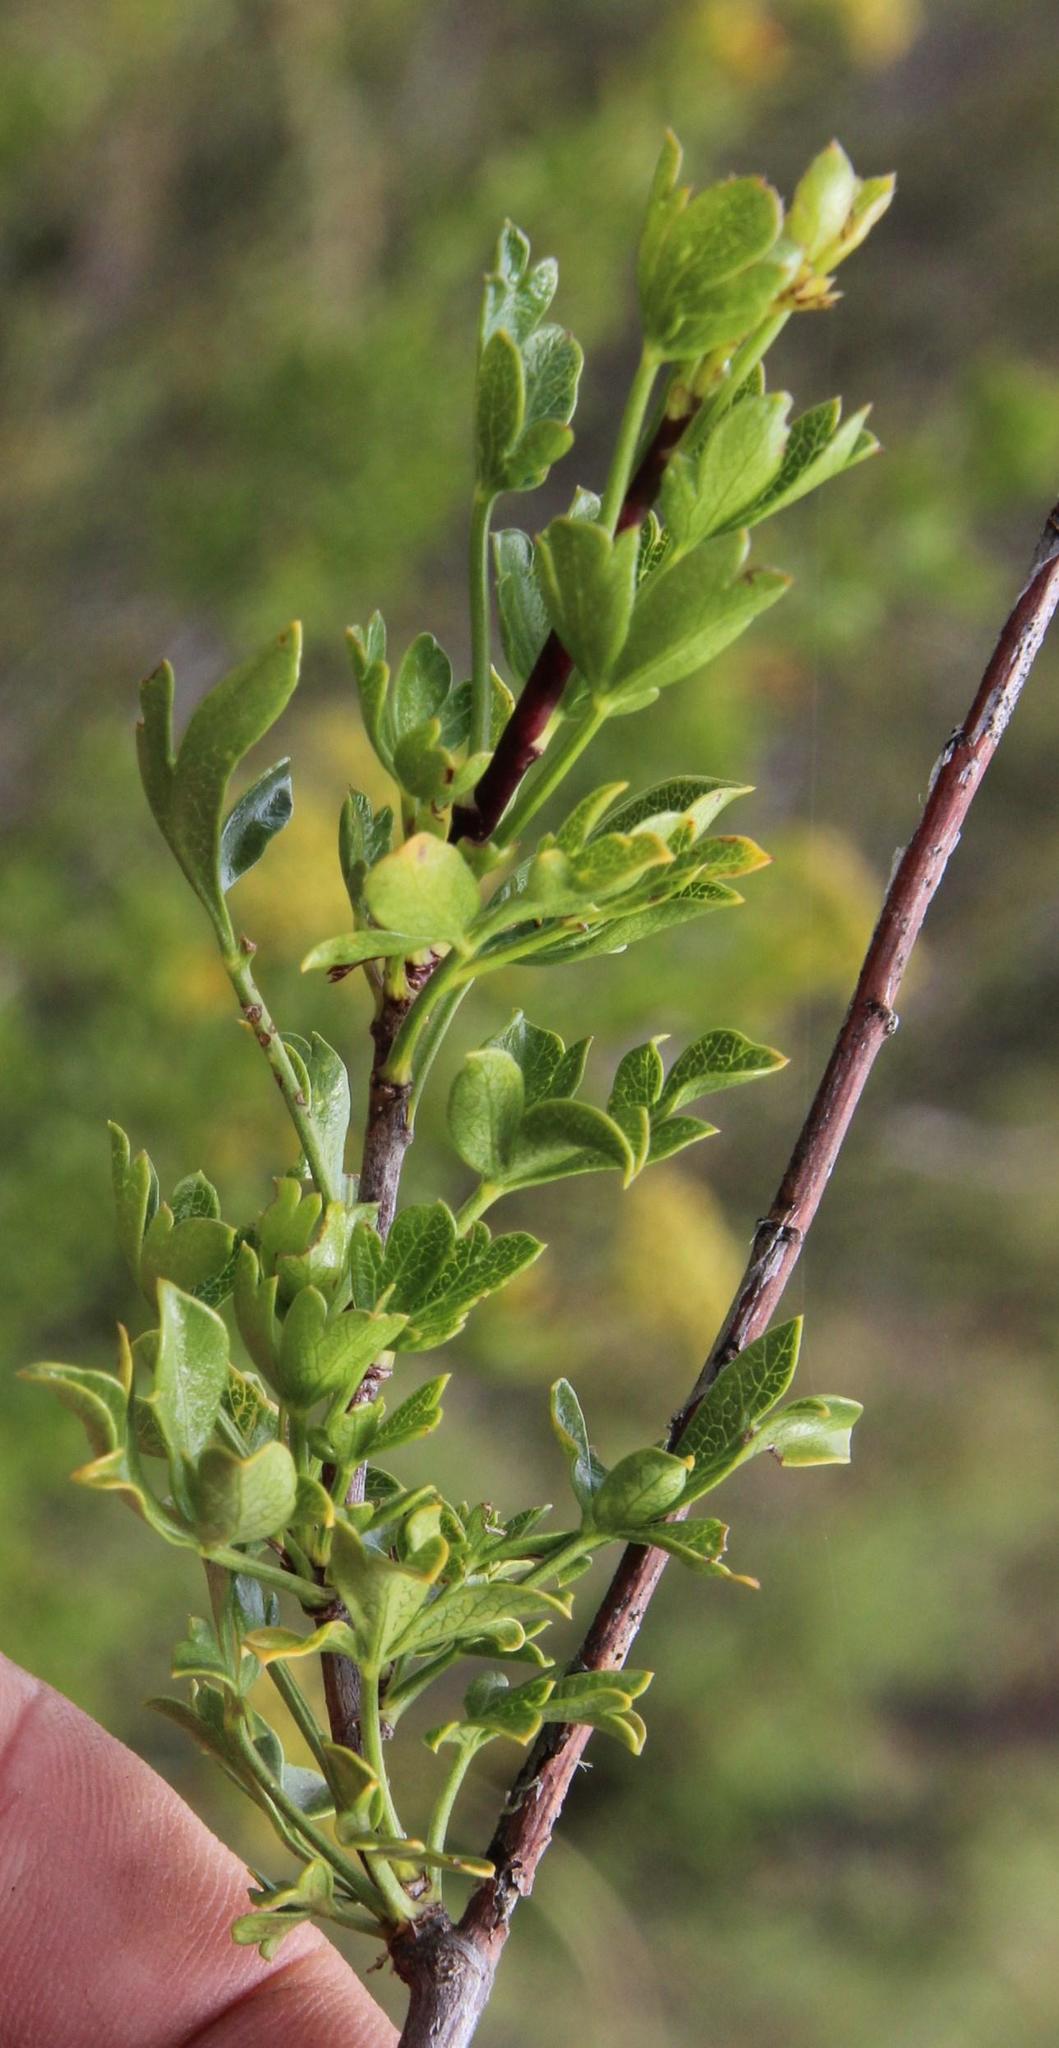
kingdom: Plantae
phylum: Tracheophyta
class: Magnoliopsida
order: Apiales
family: Apiaceae
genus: Polemannia
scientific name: Polemannia grossulariifolia
